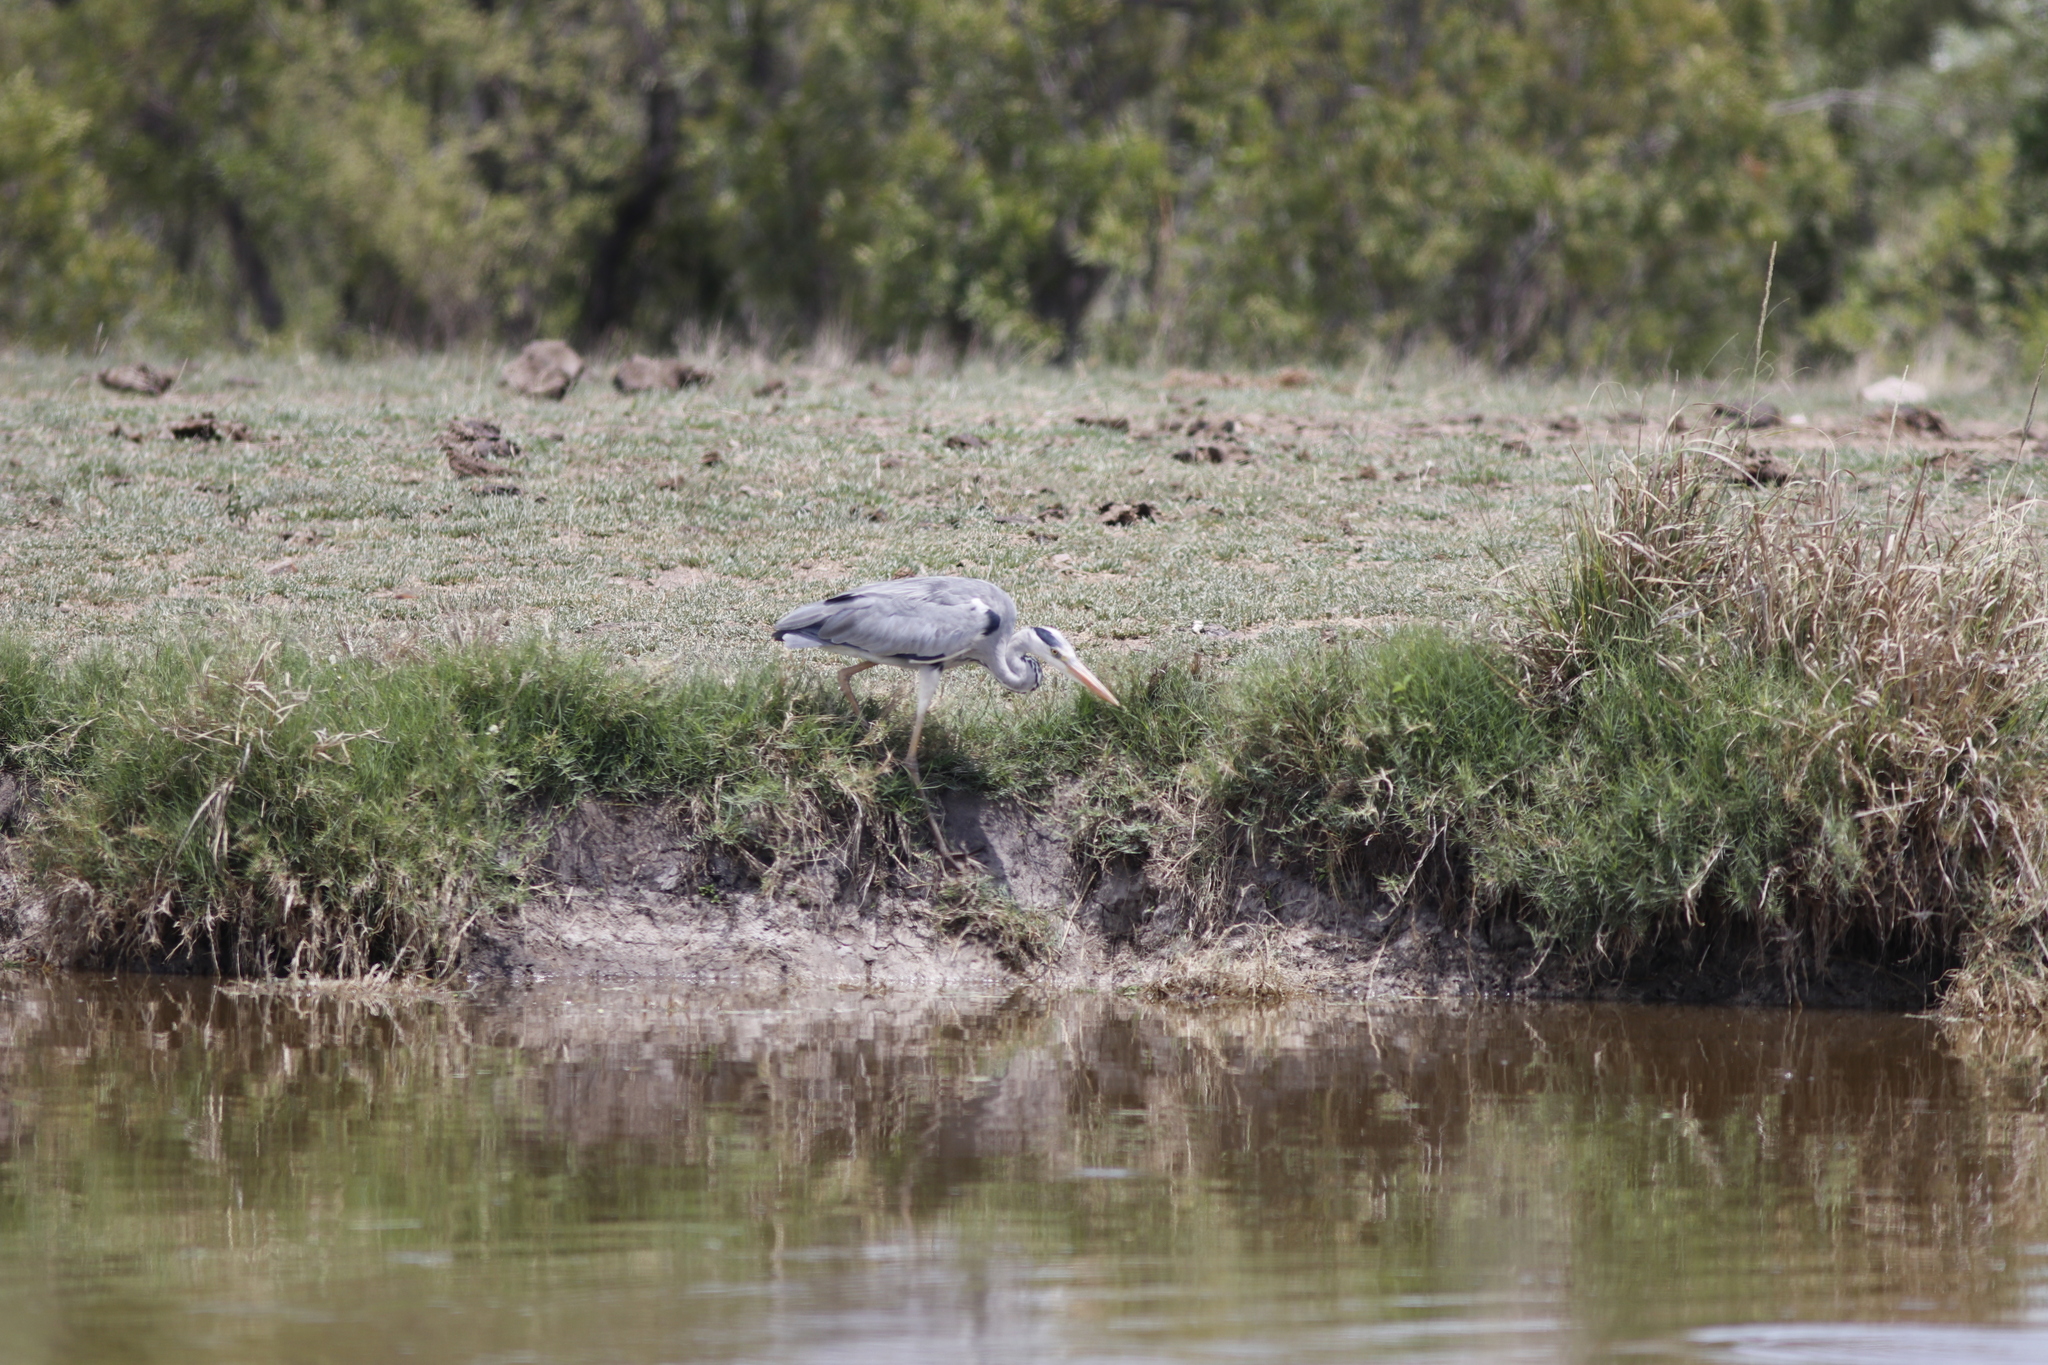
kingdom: Animalia
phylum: Chordata
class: Aves
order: Pelecaniformes
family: Ardeidae
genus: Ardea
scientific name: Ardea cinerea
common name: Grey heron
